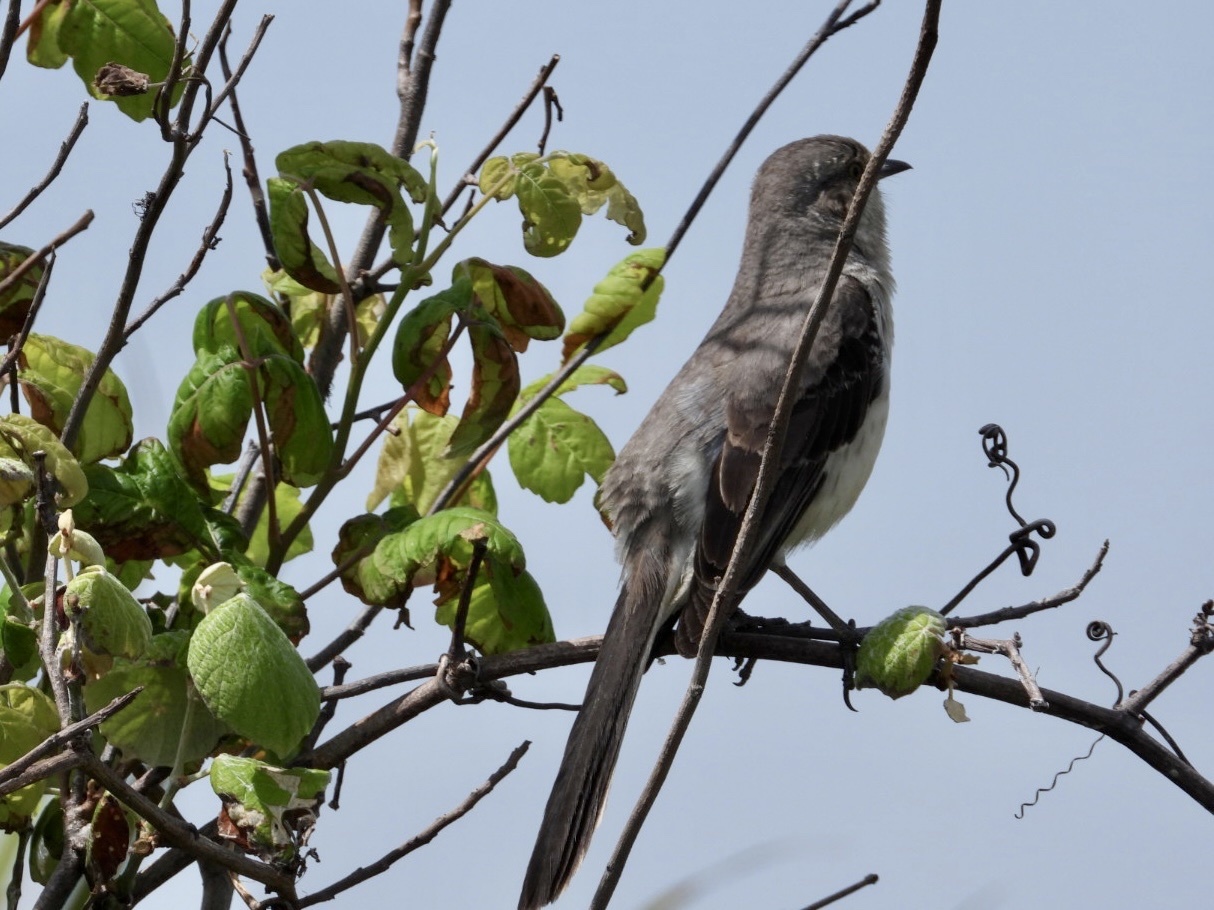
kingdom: Animalia
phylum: Chordata
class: Aves
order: Passeriformes
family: Mimidae
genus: Mimus
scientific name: Mimus polyglottos
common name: Northern mockingbird
